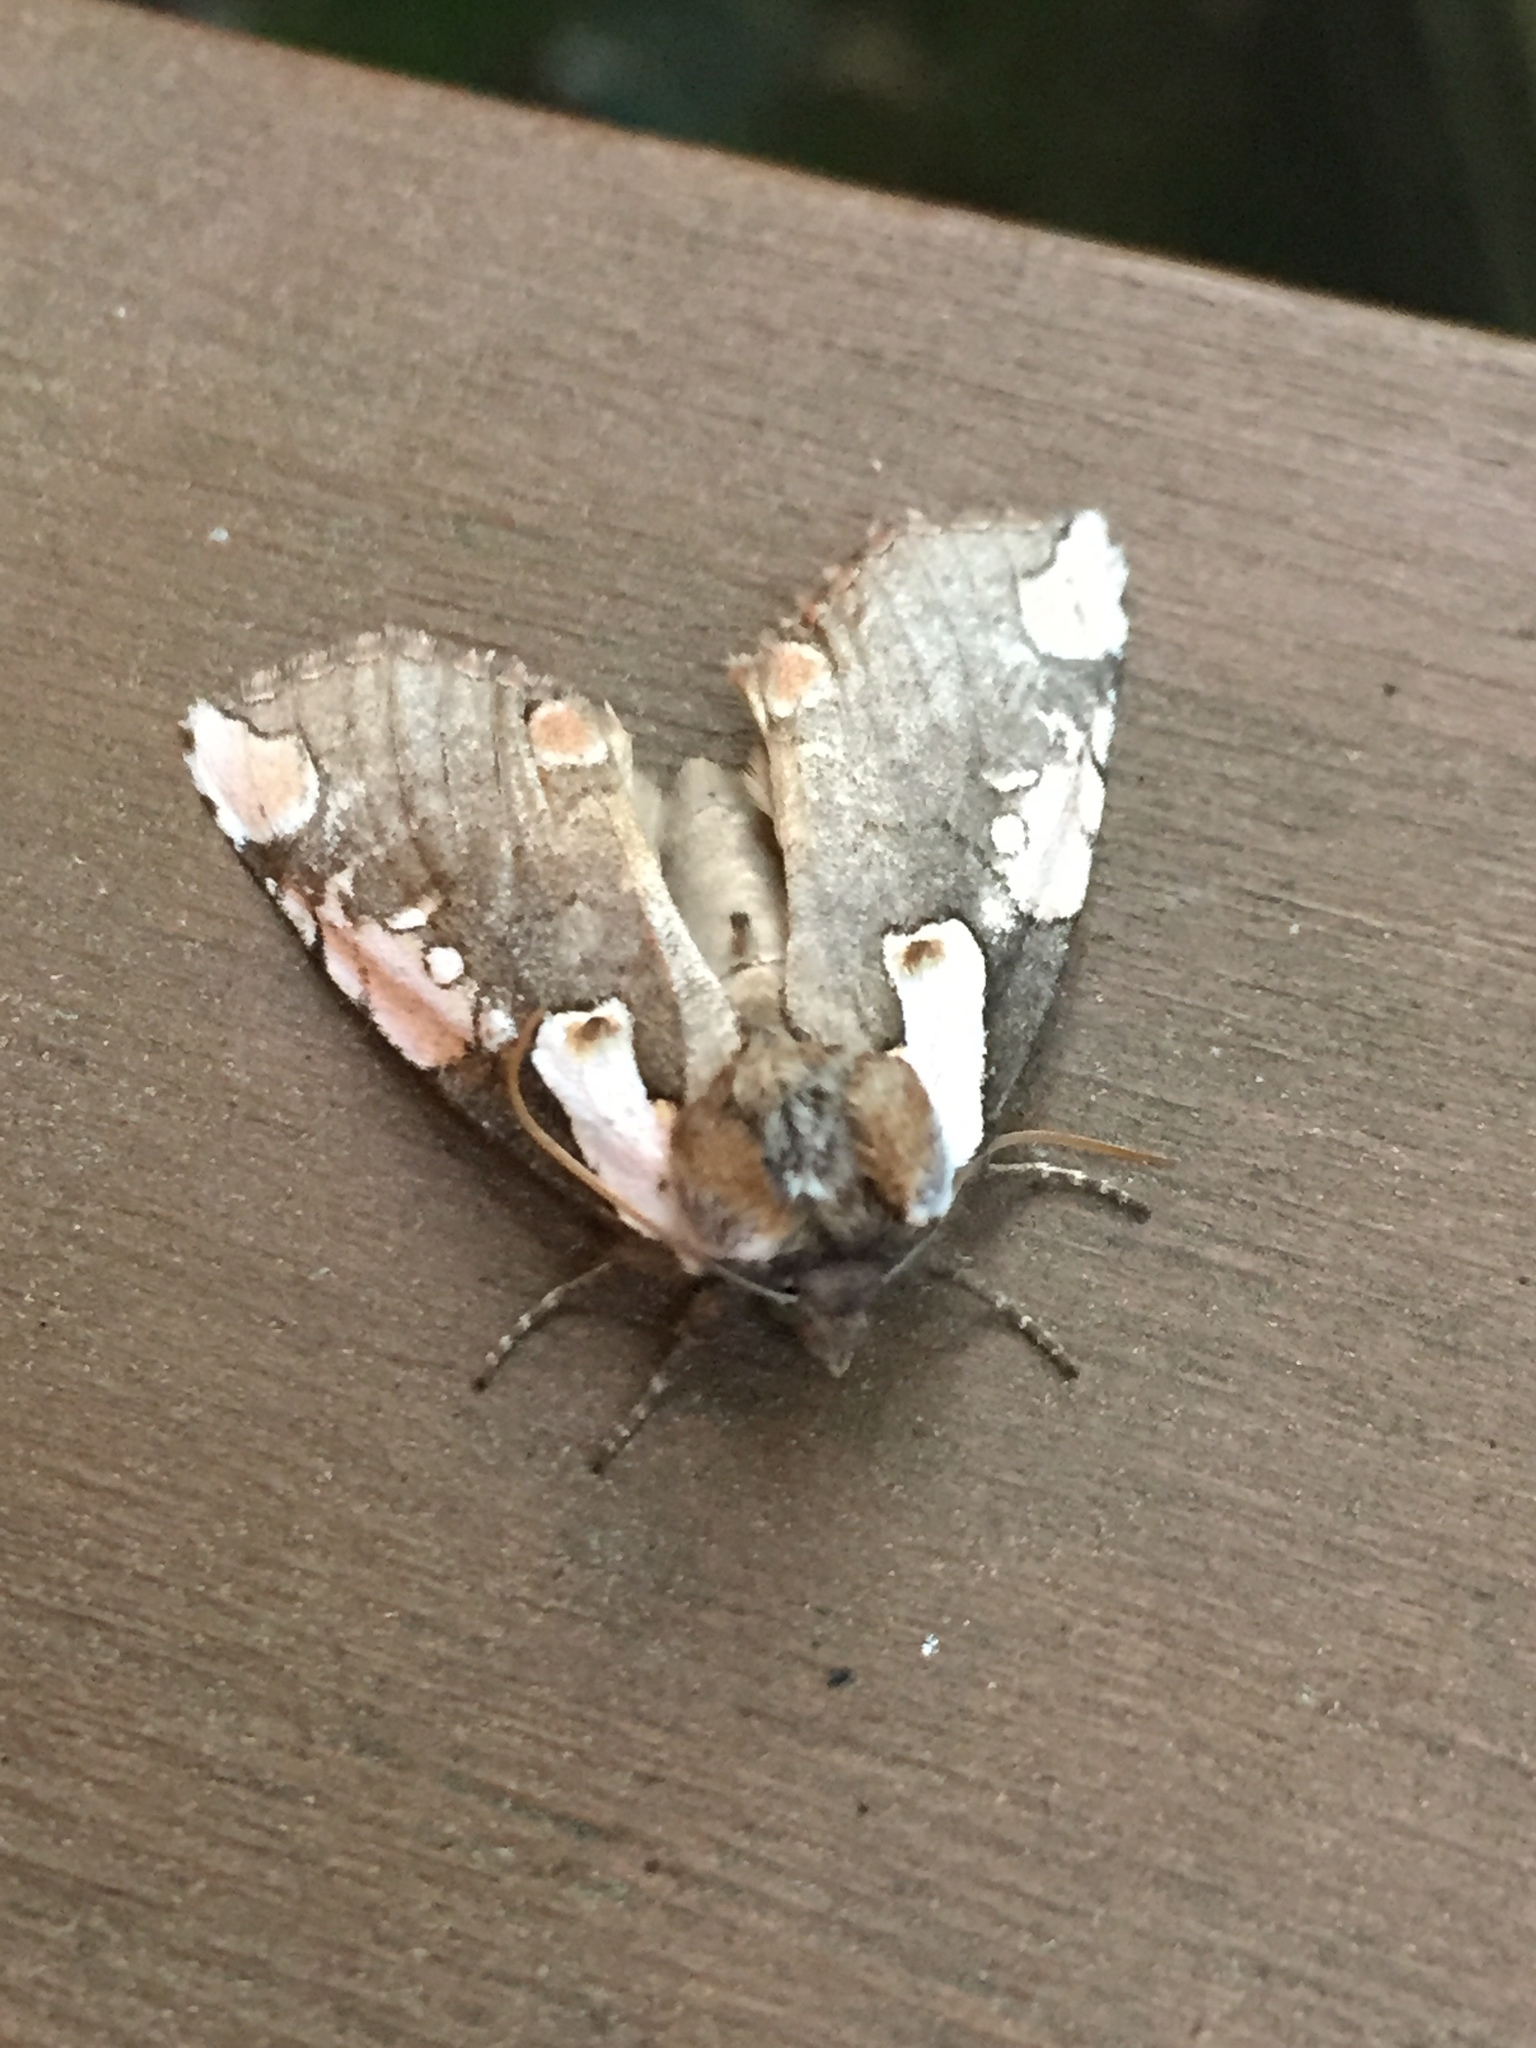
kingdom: Animalia
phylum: Arthropoda
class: Insecta
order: Lepidoptera
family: Drepanidae
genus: Euthyatira
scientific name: Euthyatira pudens
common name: Dogwood thyatirid moth
